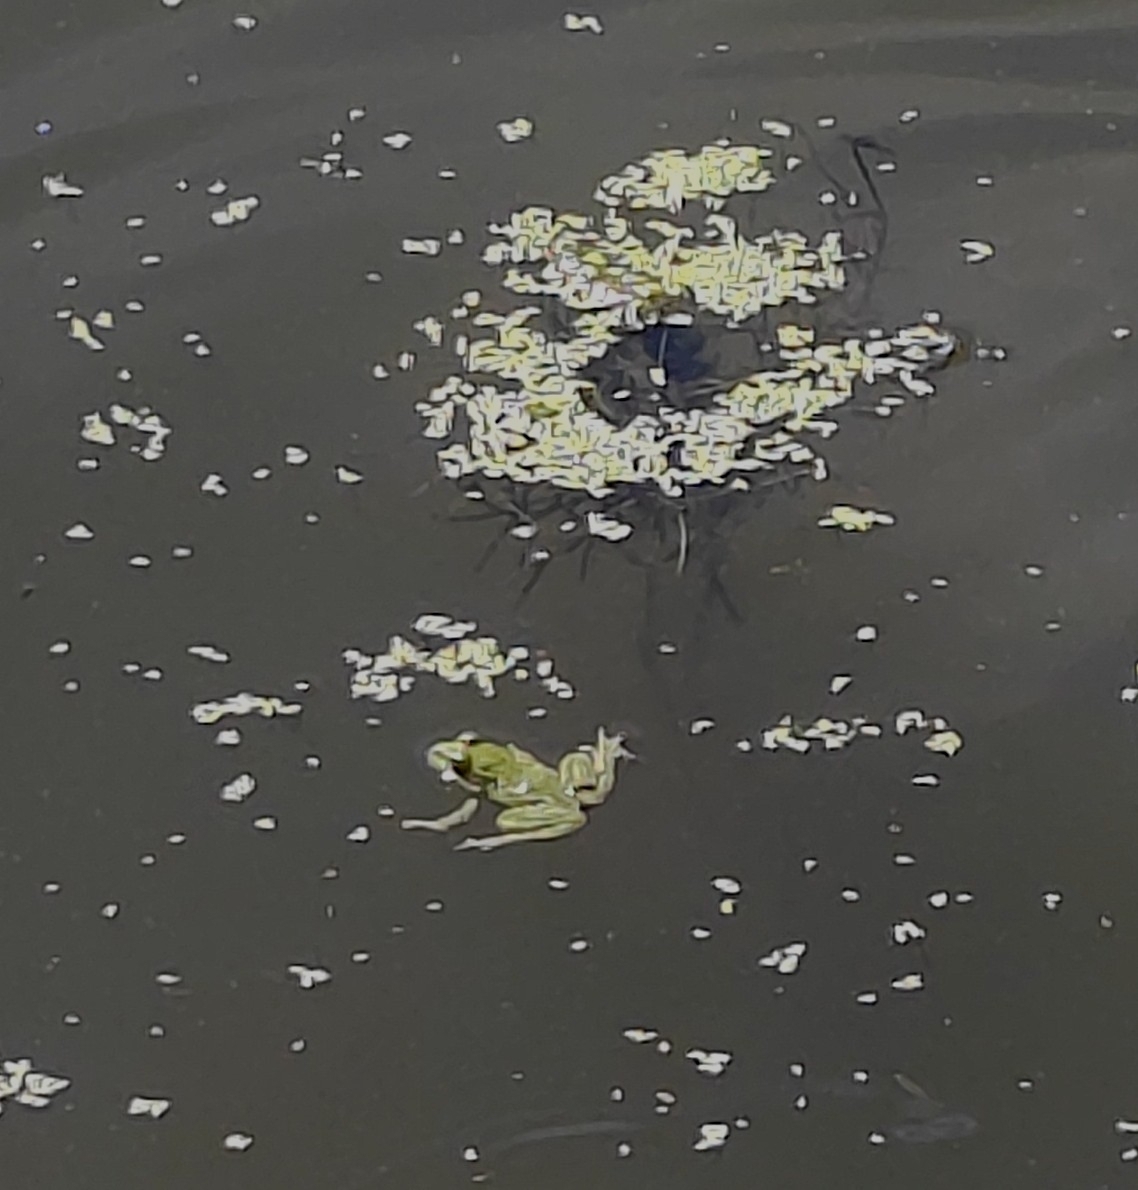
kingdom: Animalia
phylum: Chordata
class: Amphibia
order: Anura
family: Ranidae
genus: Pelophylax
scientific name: Pelophylax ridibundus
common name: Marsh frog
